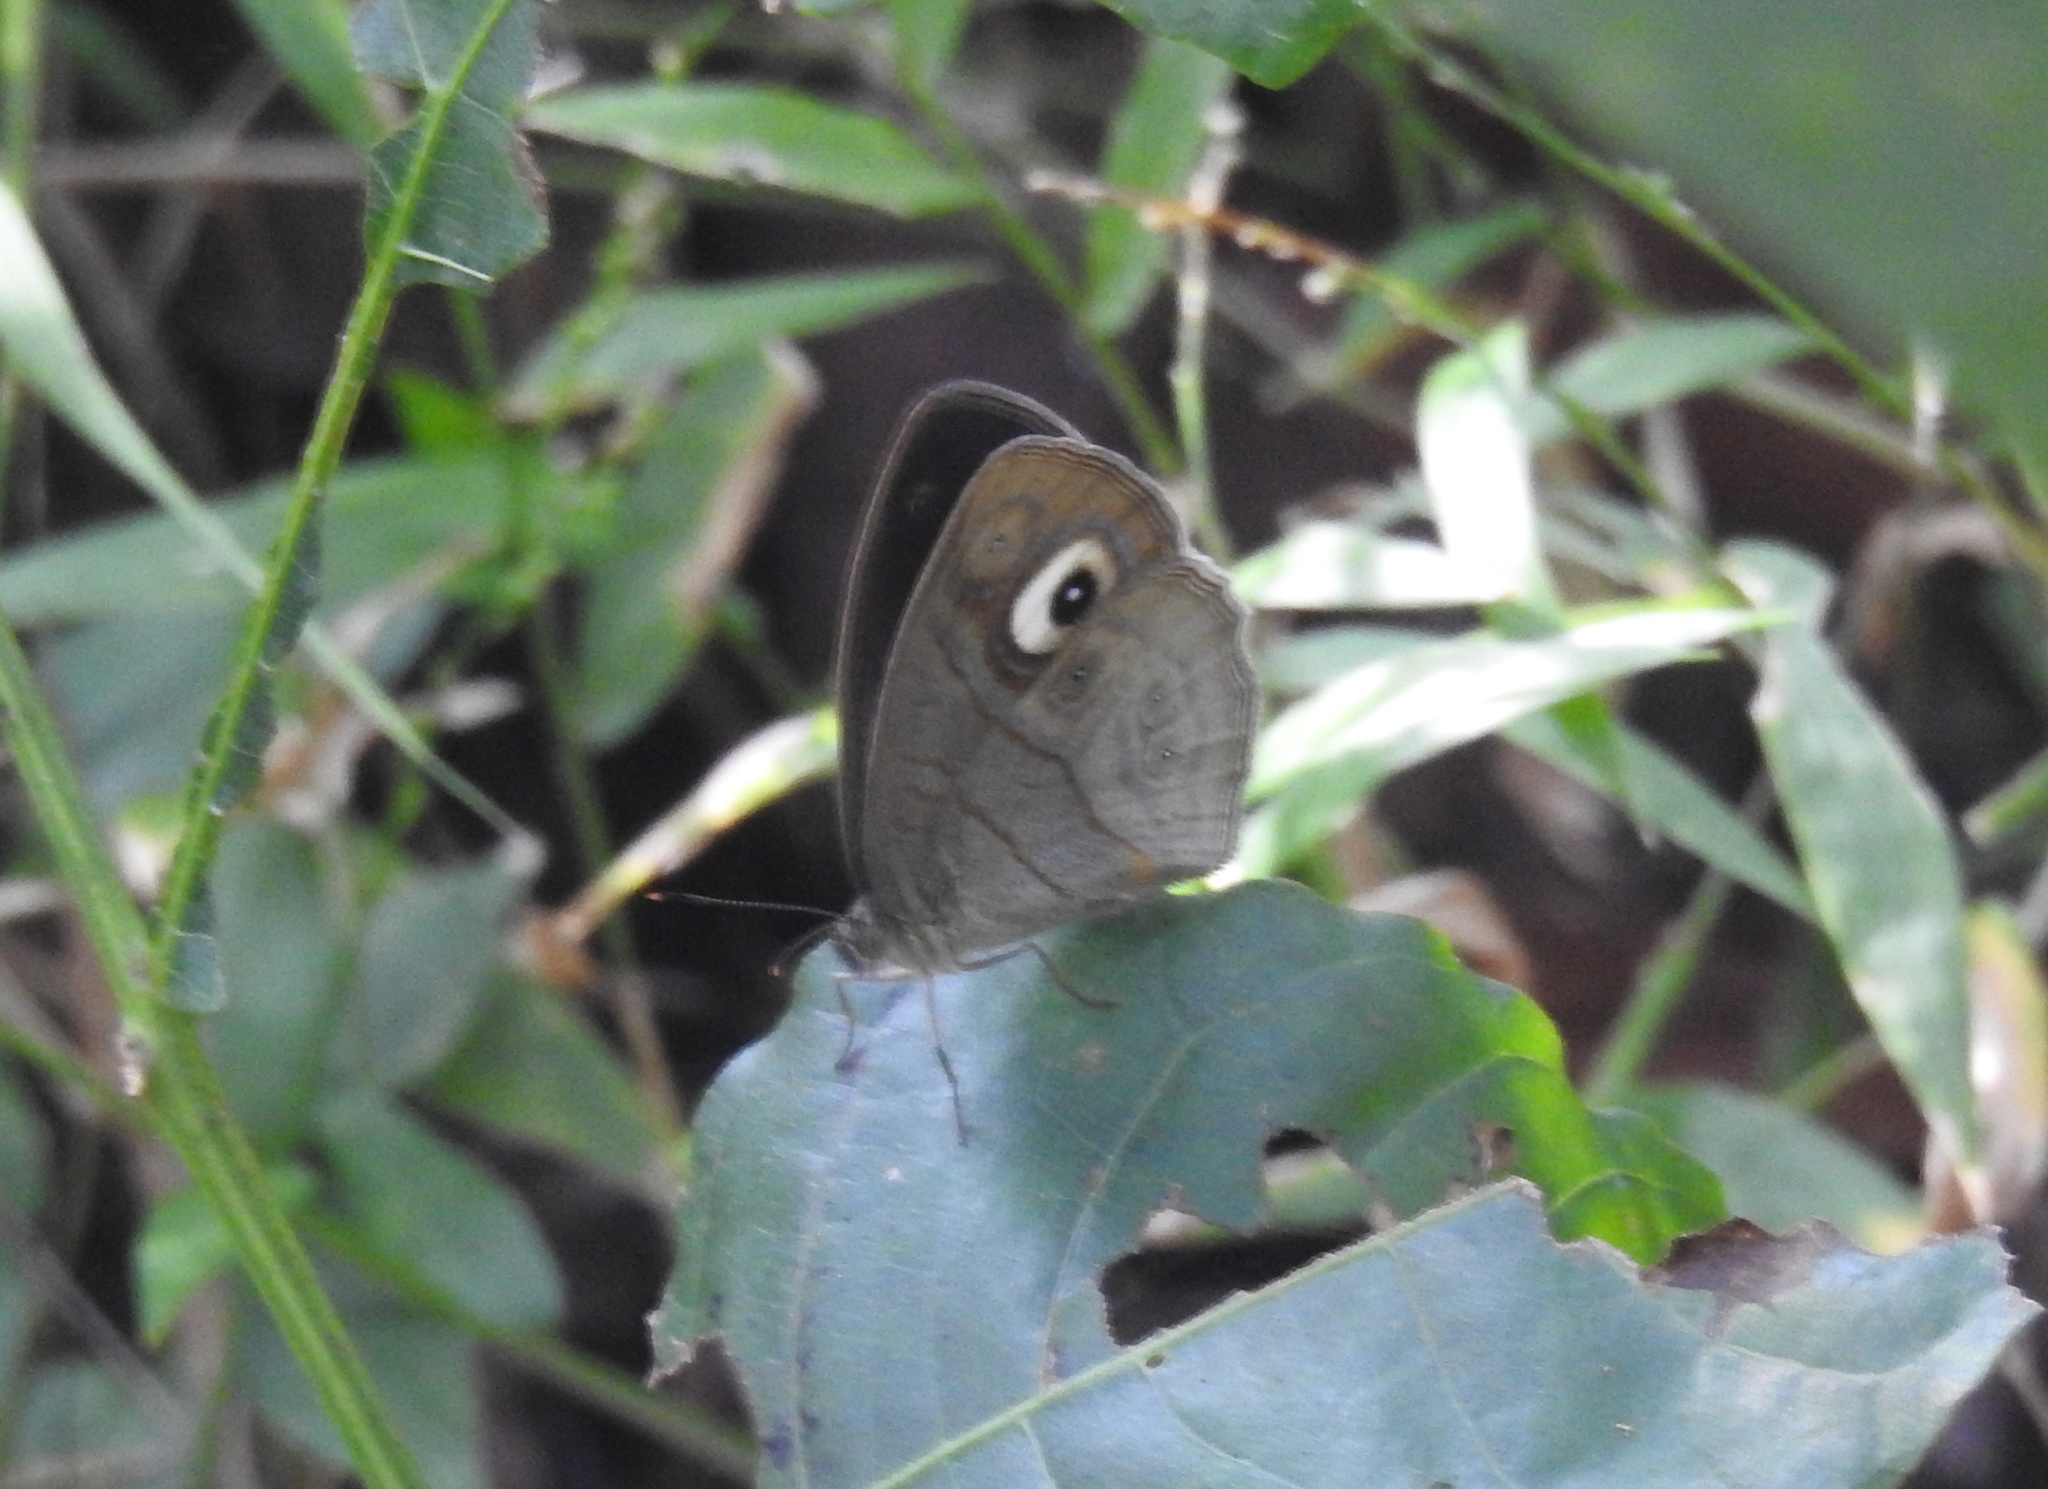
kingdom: Animalia
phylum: Arthropoda
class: Insecta
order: Lepidoptera
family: Nymphalidae
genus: Mycalesis
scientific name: Mycalesis patnia
